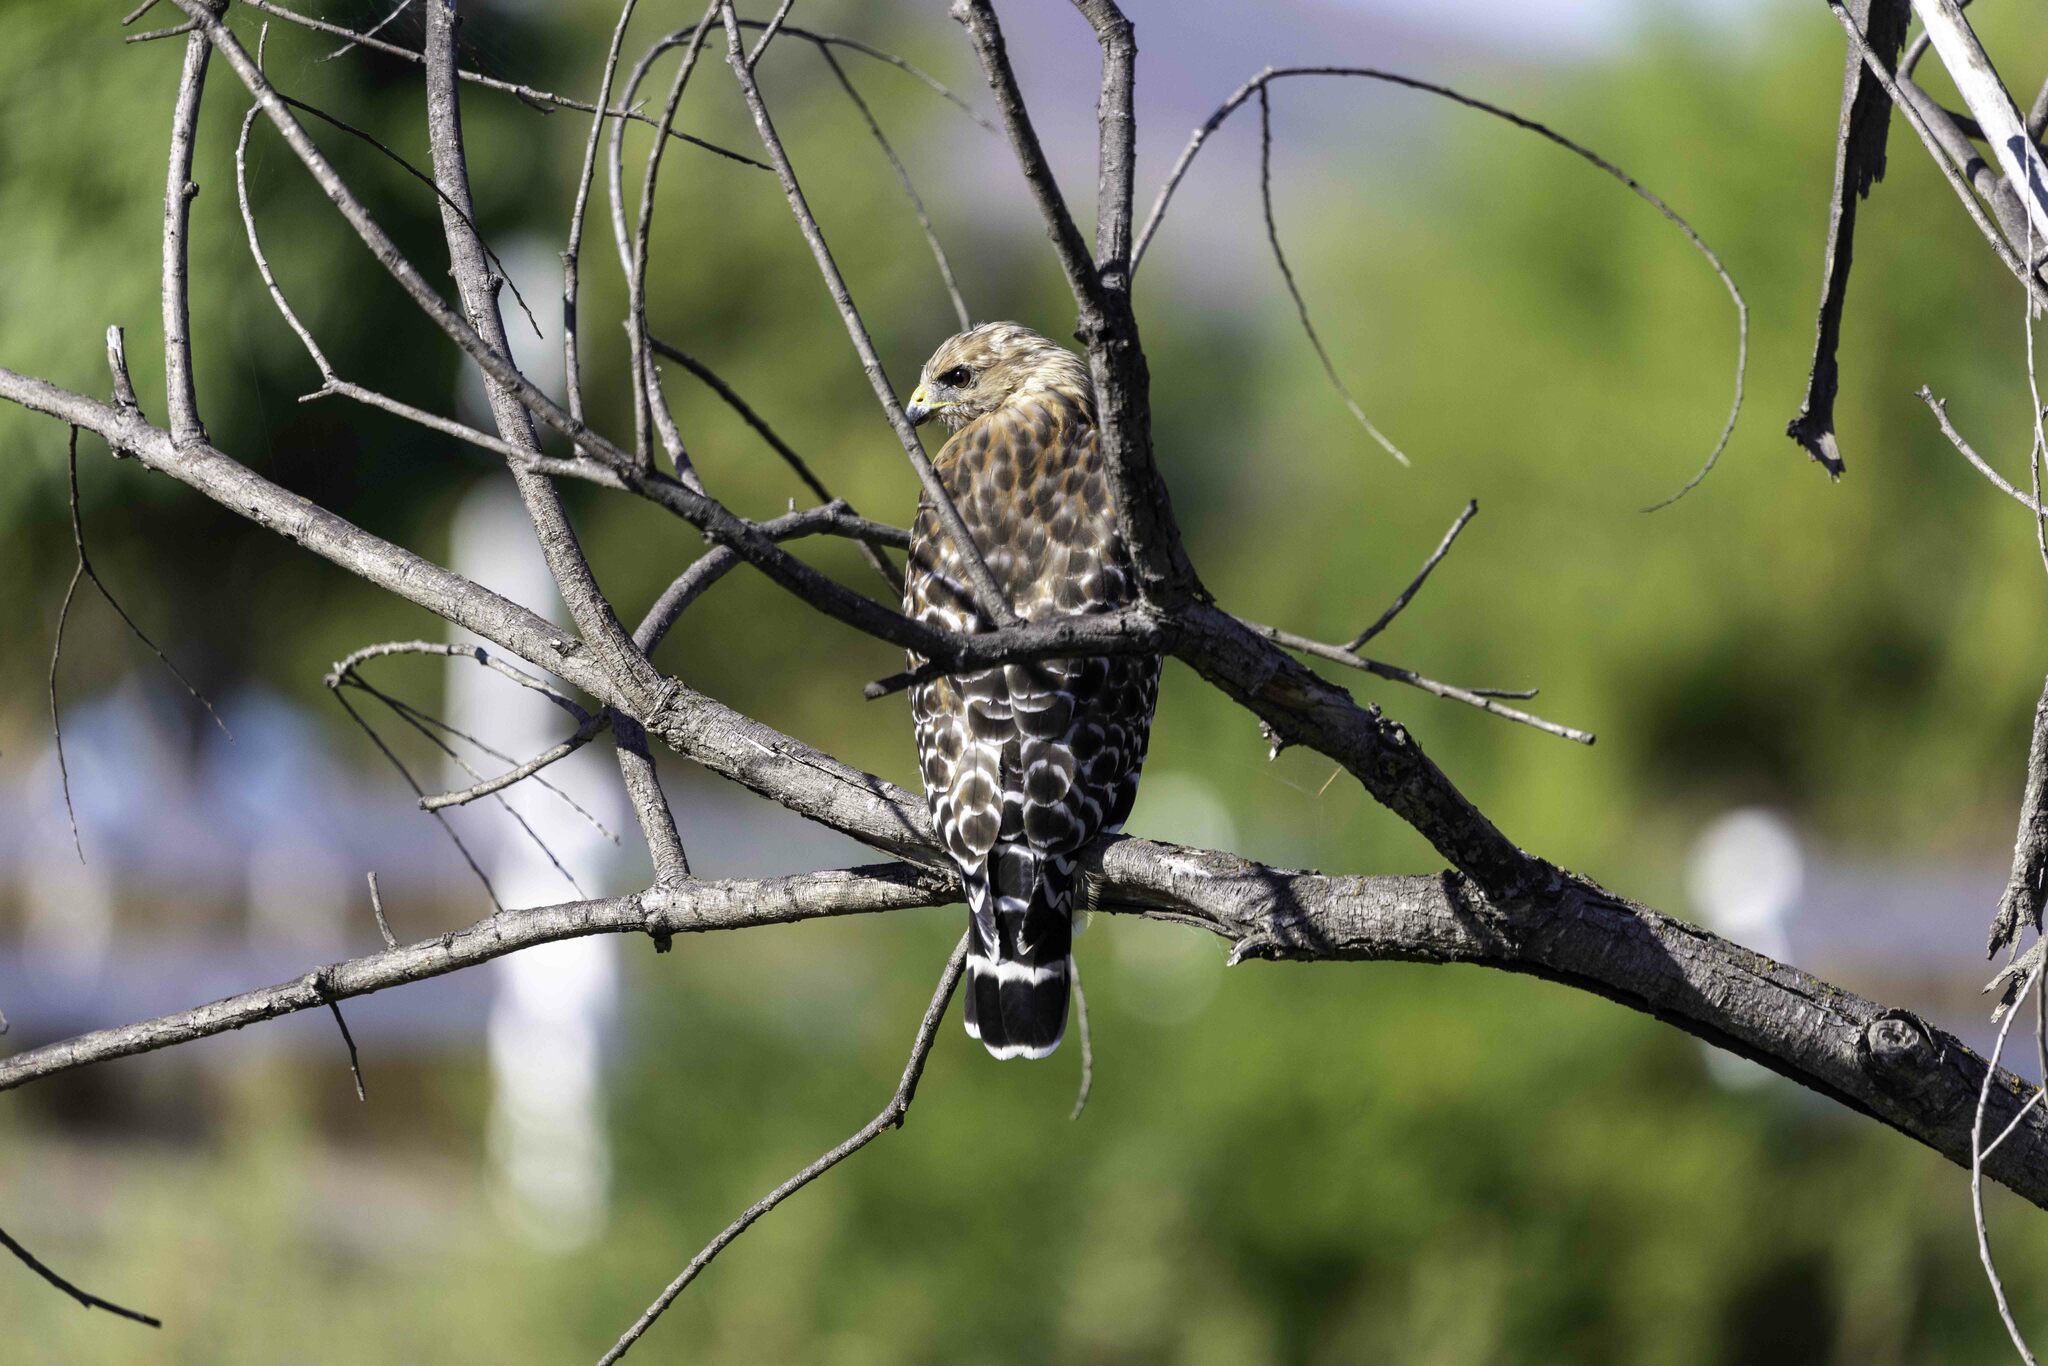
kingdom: Animalia
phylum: Chordata
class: Aves
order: Accipitriformes
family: Accipitridae
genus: Buteo
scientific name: Buteo lineatus
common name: Red-shouldered hawk
